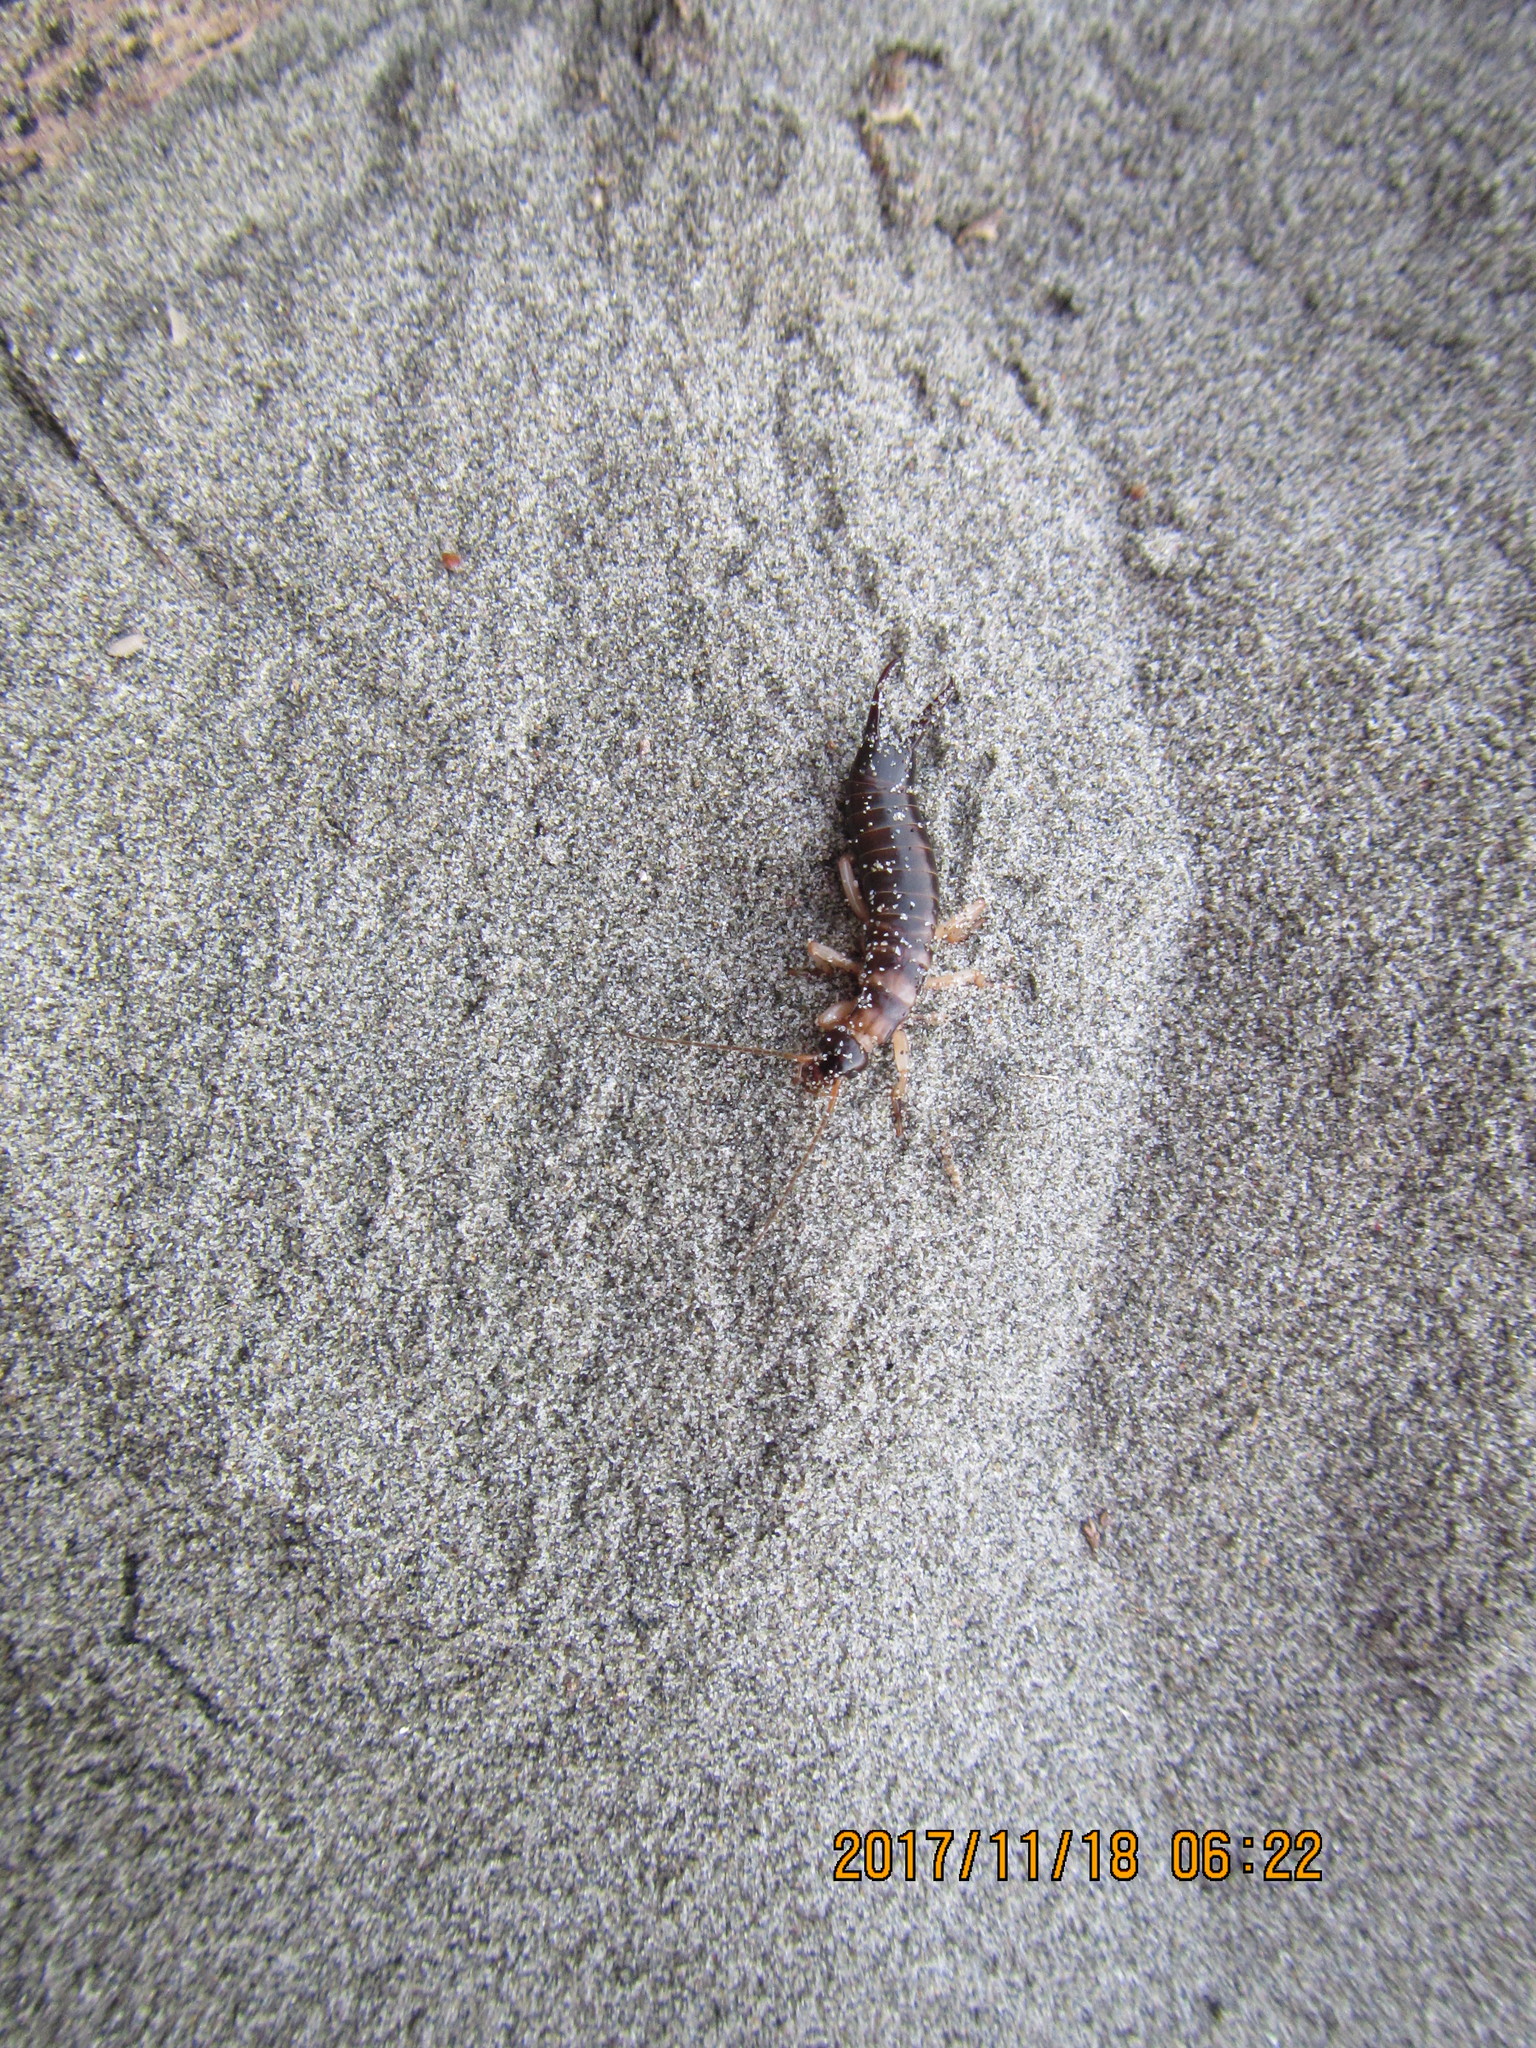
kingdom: Animalia
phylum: Arthropoda
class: Insecta
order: Dermaptera
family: Anisolabididae
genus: Anisolabis
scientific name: Anisolabis littorea
